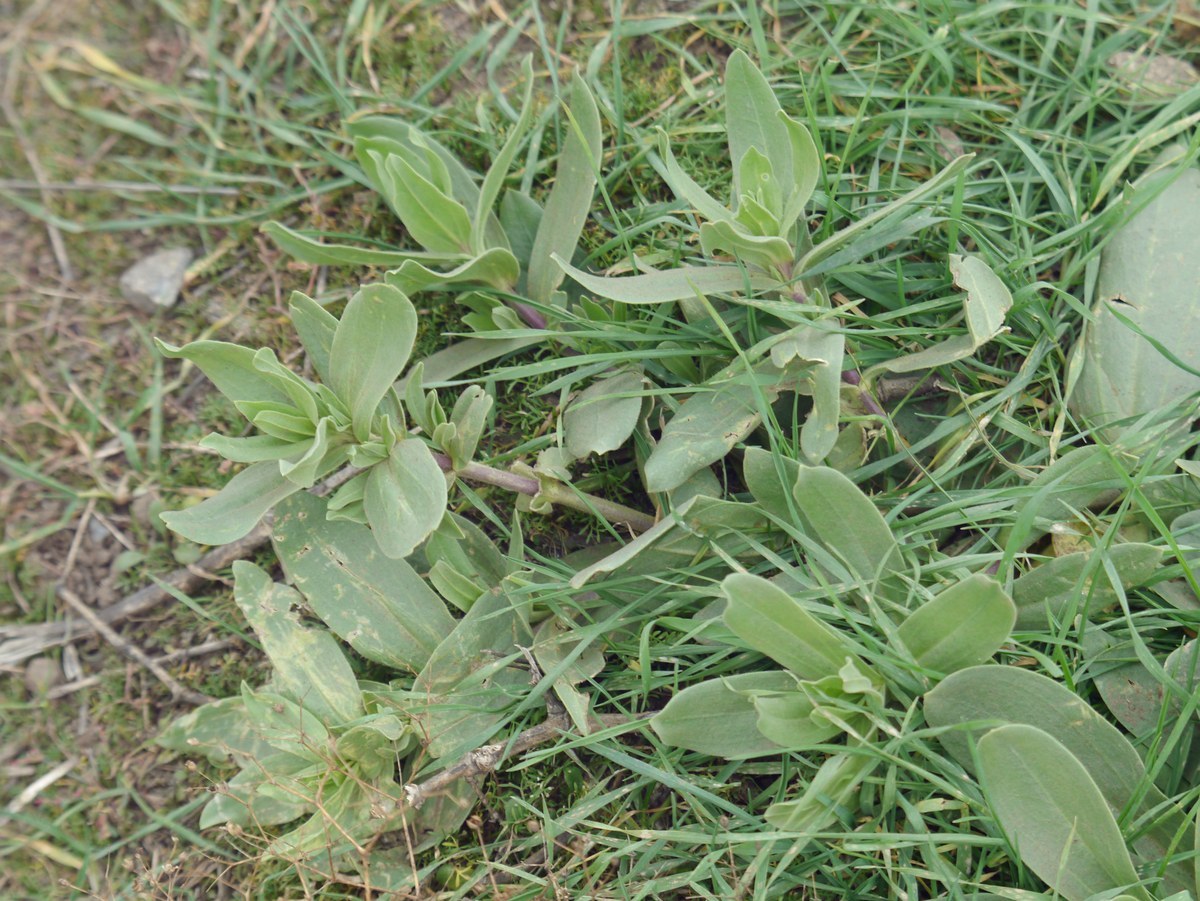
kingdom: Plantae
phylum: Tracheophyta
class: Magnoliopsida
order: Caryophyllales
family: Caryophyllaceae
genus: Gypsophila
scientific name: Gypsophila perfoliata
